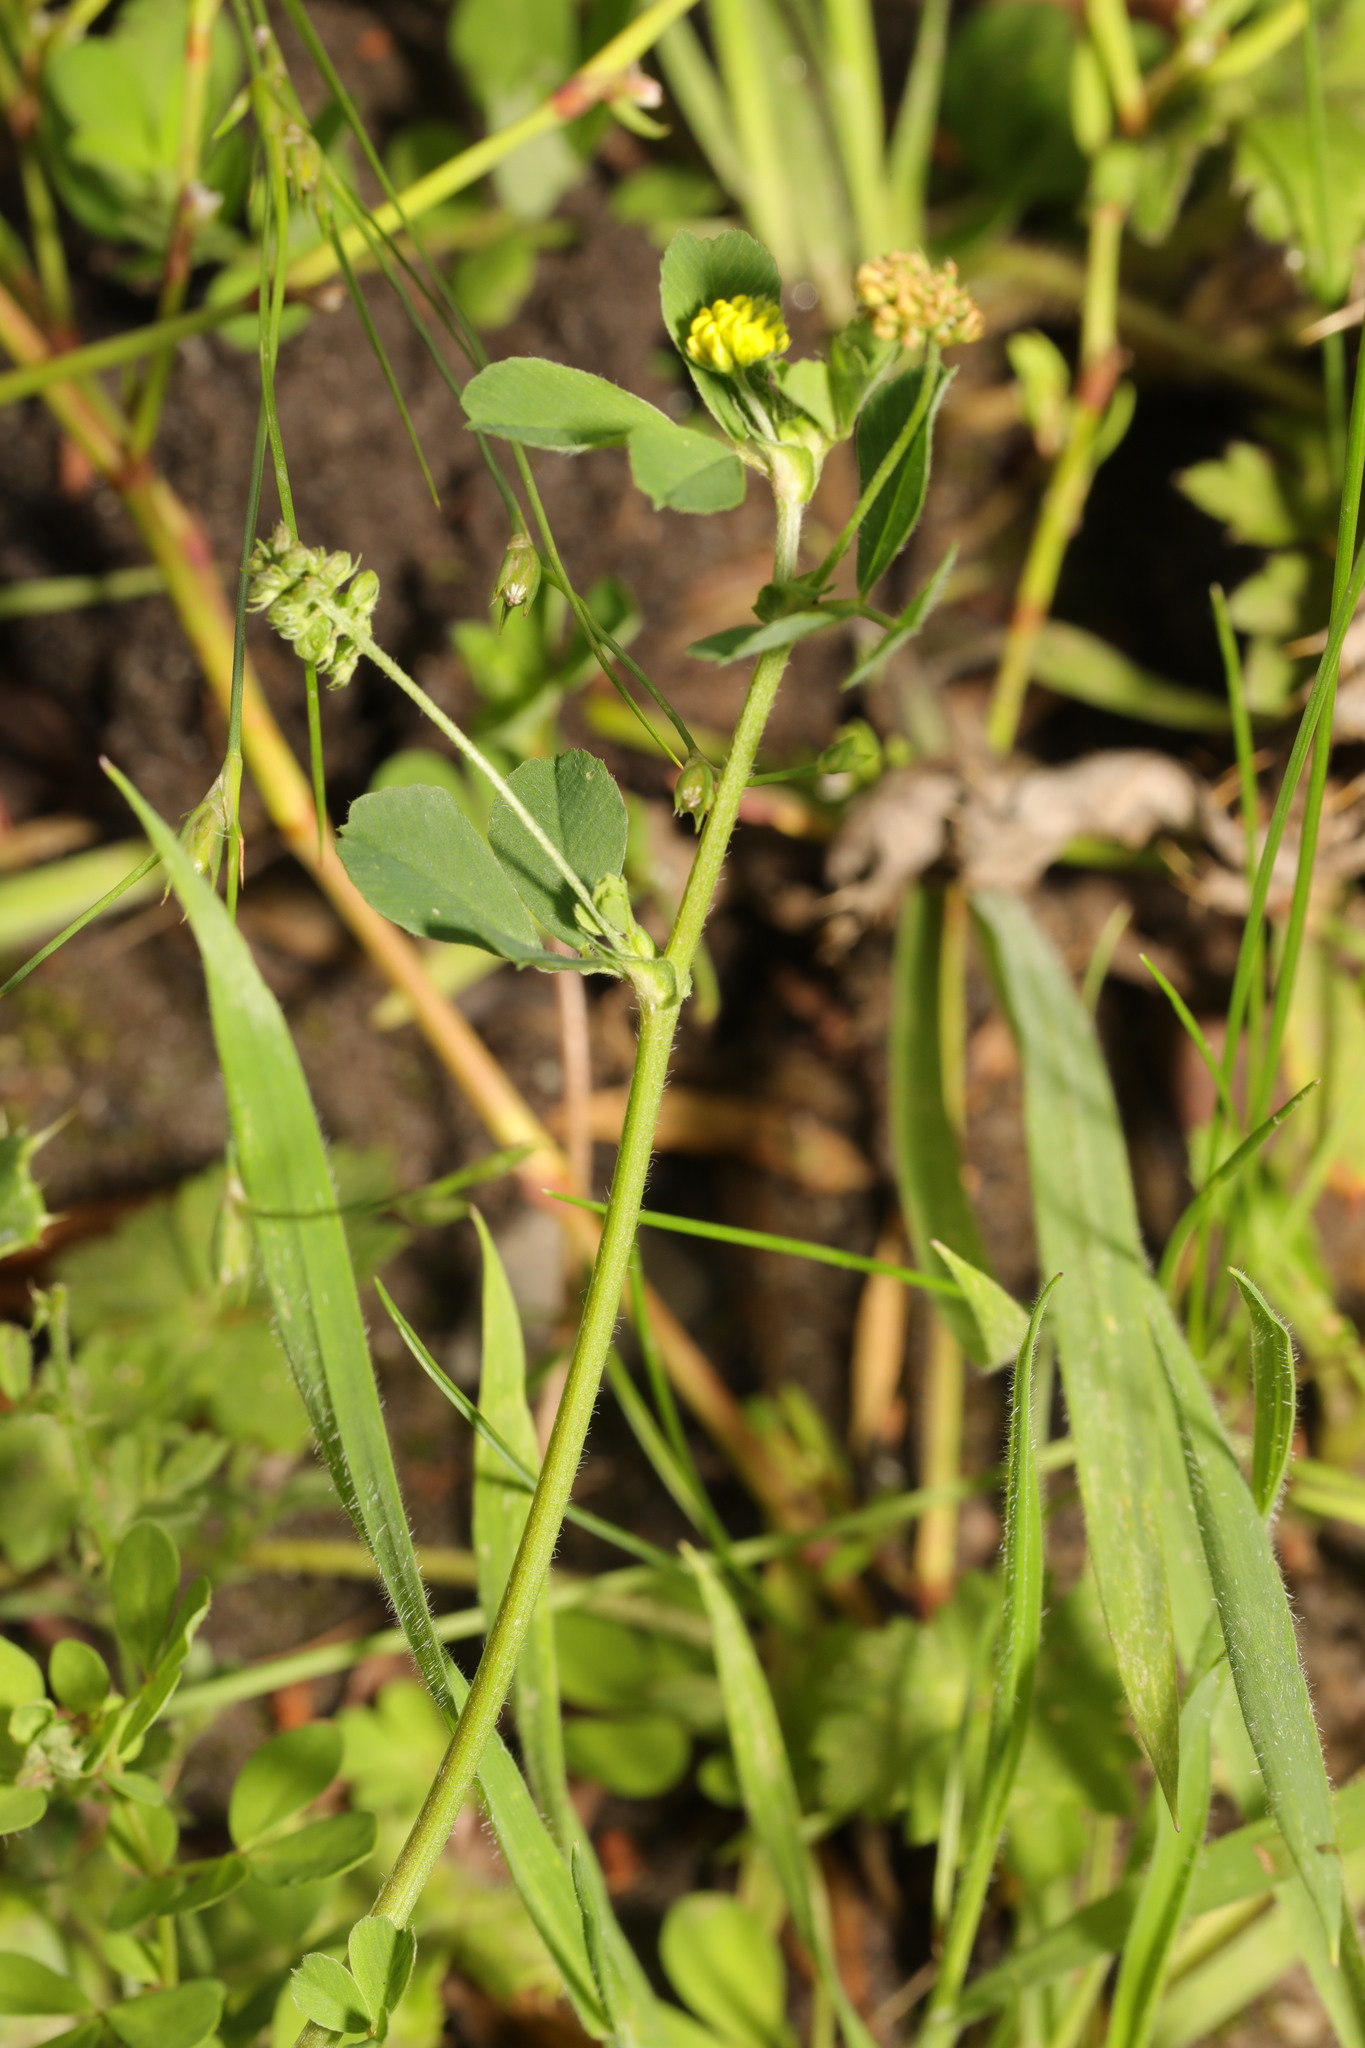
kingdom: Plantae
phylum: Tracheophyta
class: Magnoliopsida
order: Fabales
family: Fabaceae
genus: Medicago
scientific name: Medicago lupulina
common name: Black medick
